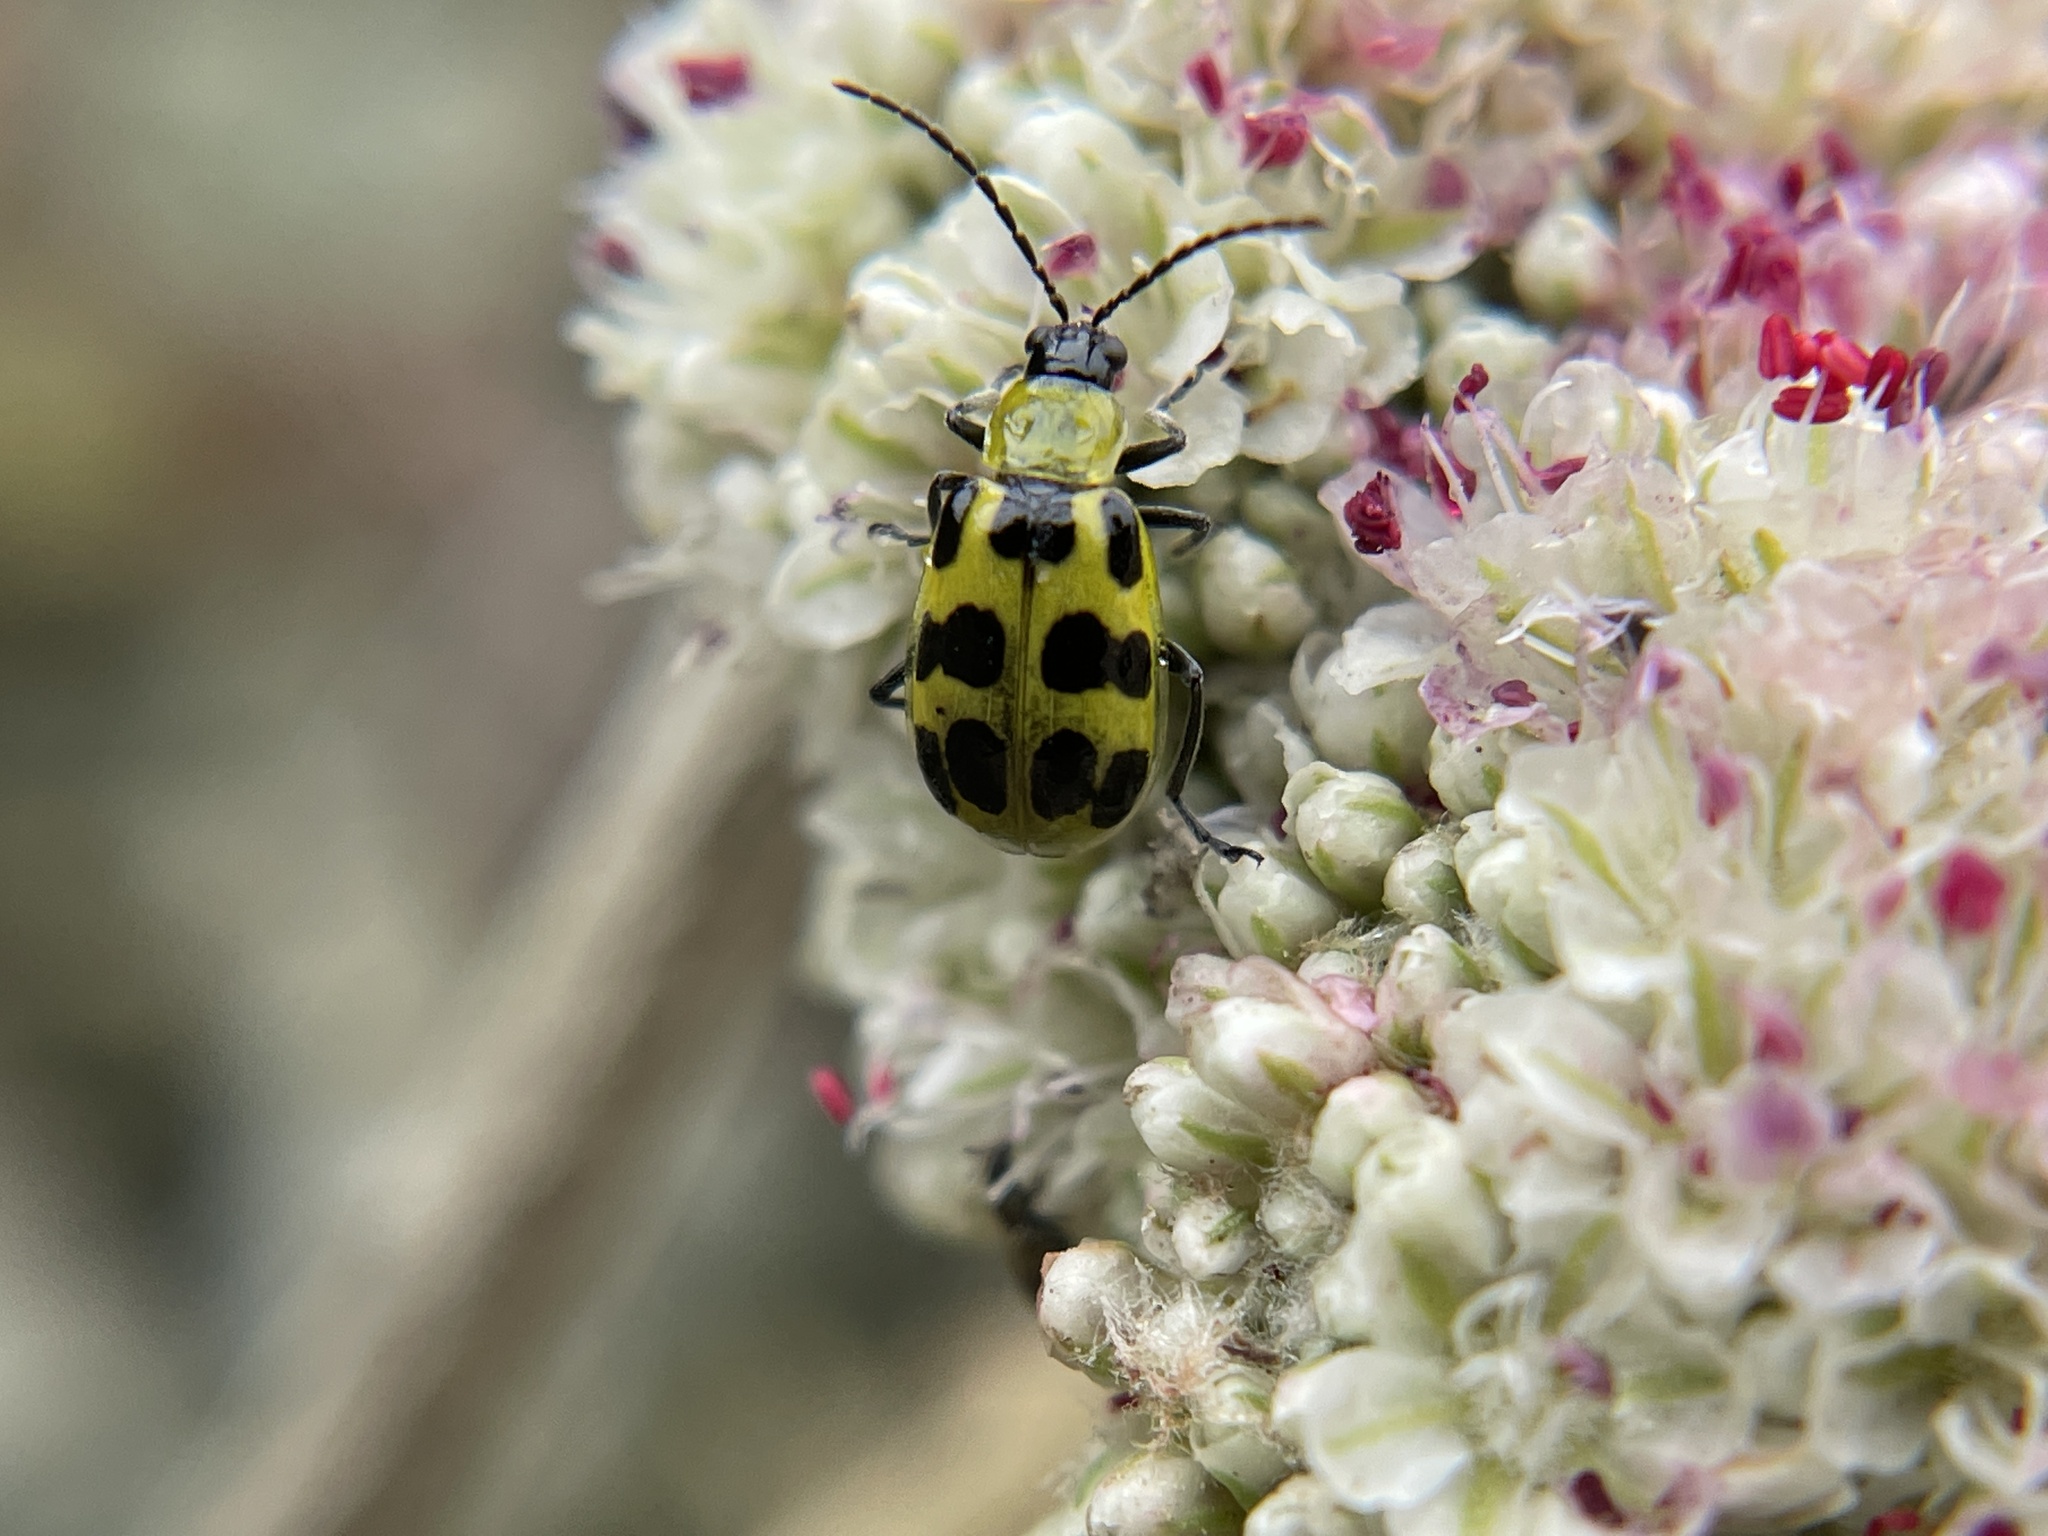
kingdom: Animalia
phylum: Arthropoda
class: Insecta
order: Coleoptera
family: Chrysomelidae
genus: Diabrotica
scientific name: Diabrotica undecimpunctata
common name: Spotted cucumber beetle
